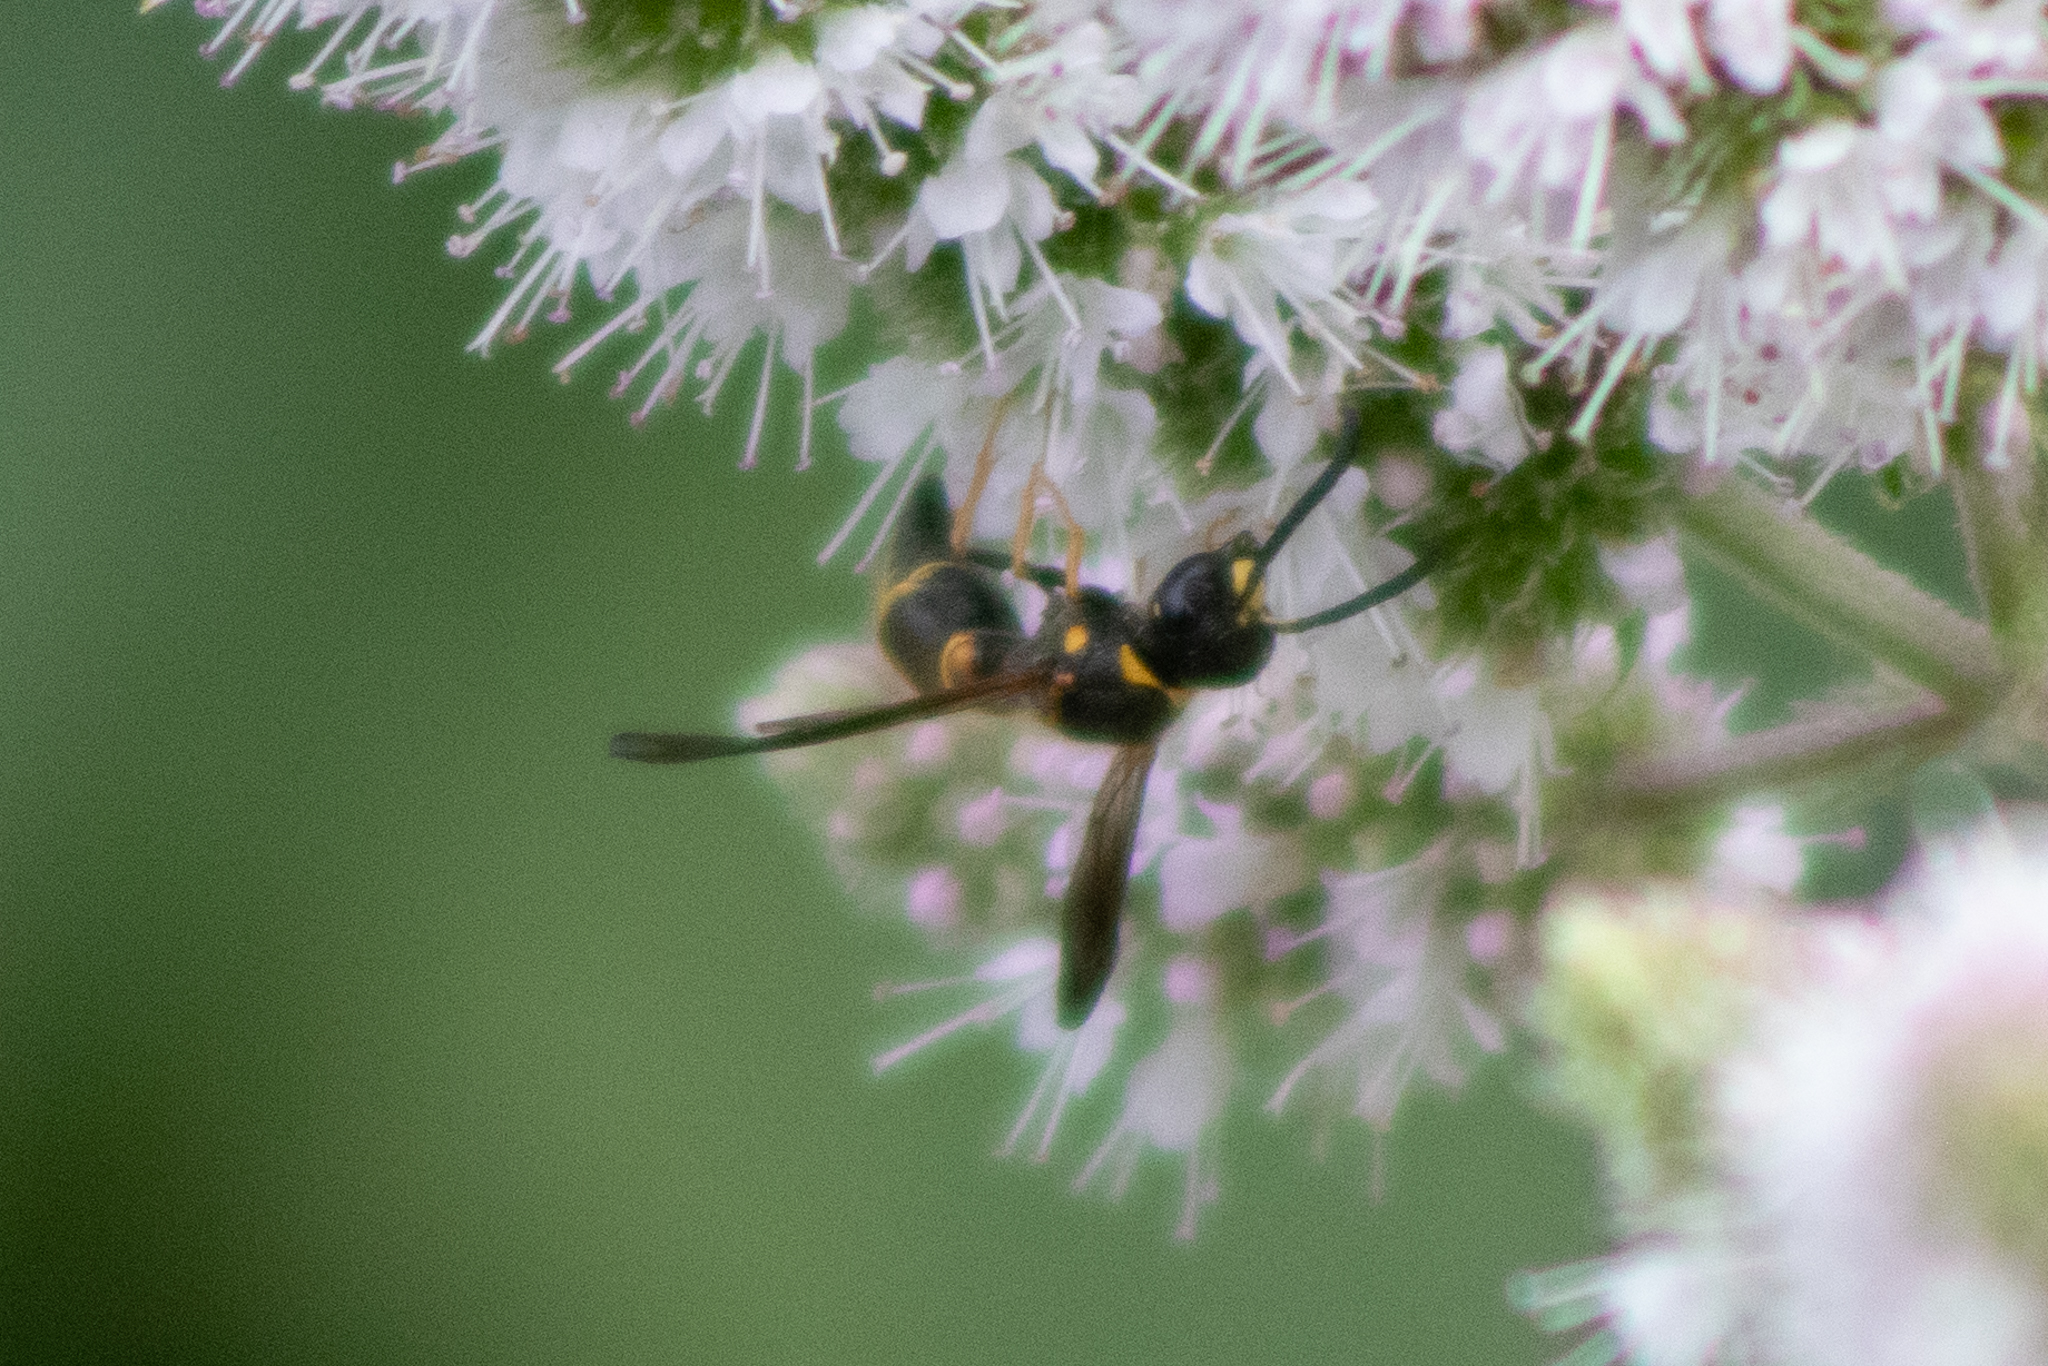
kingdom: Animalia
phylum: Arthropoda
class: Insecta
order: Hymenoptera
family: Vespidae
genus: Ancistrocerus
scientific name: Ancistrocerus campestris
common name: Smiling mason wasp
